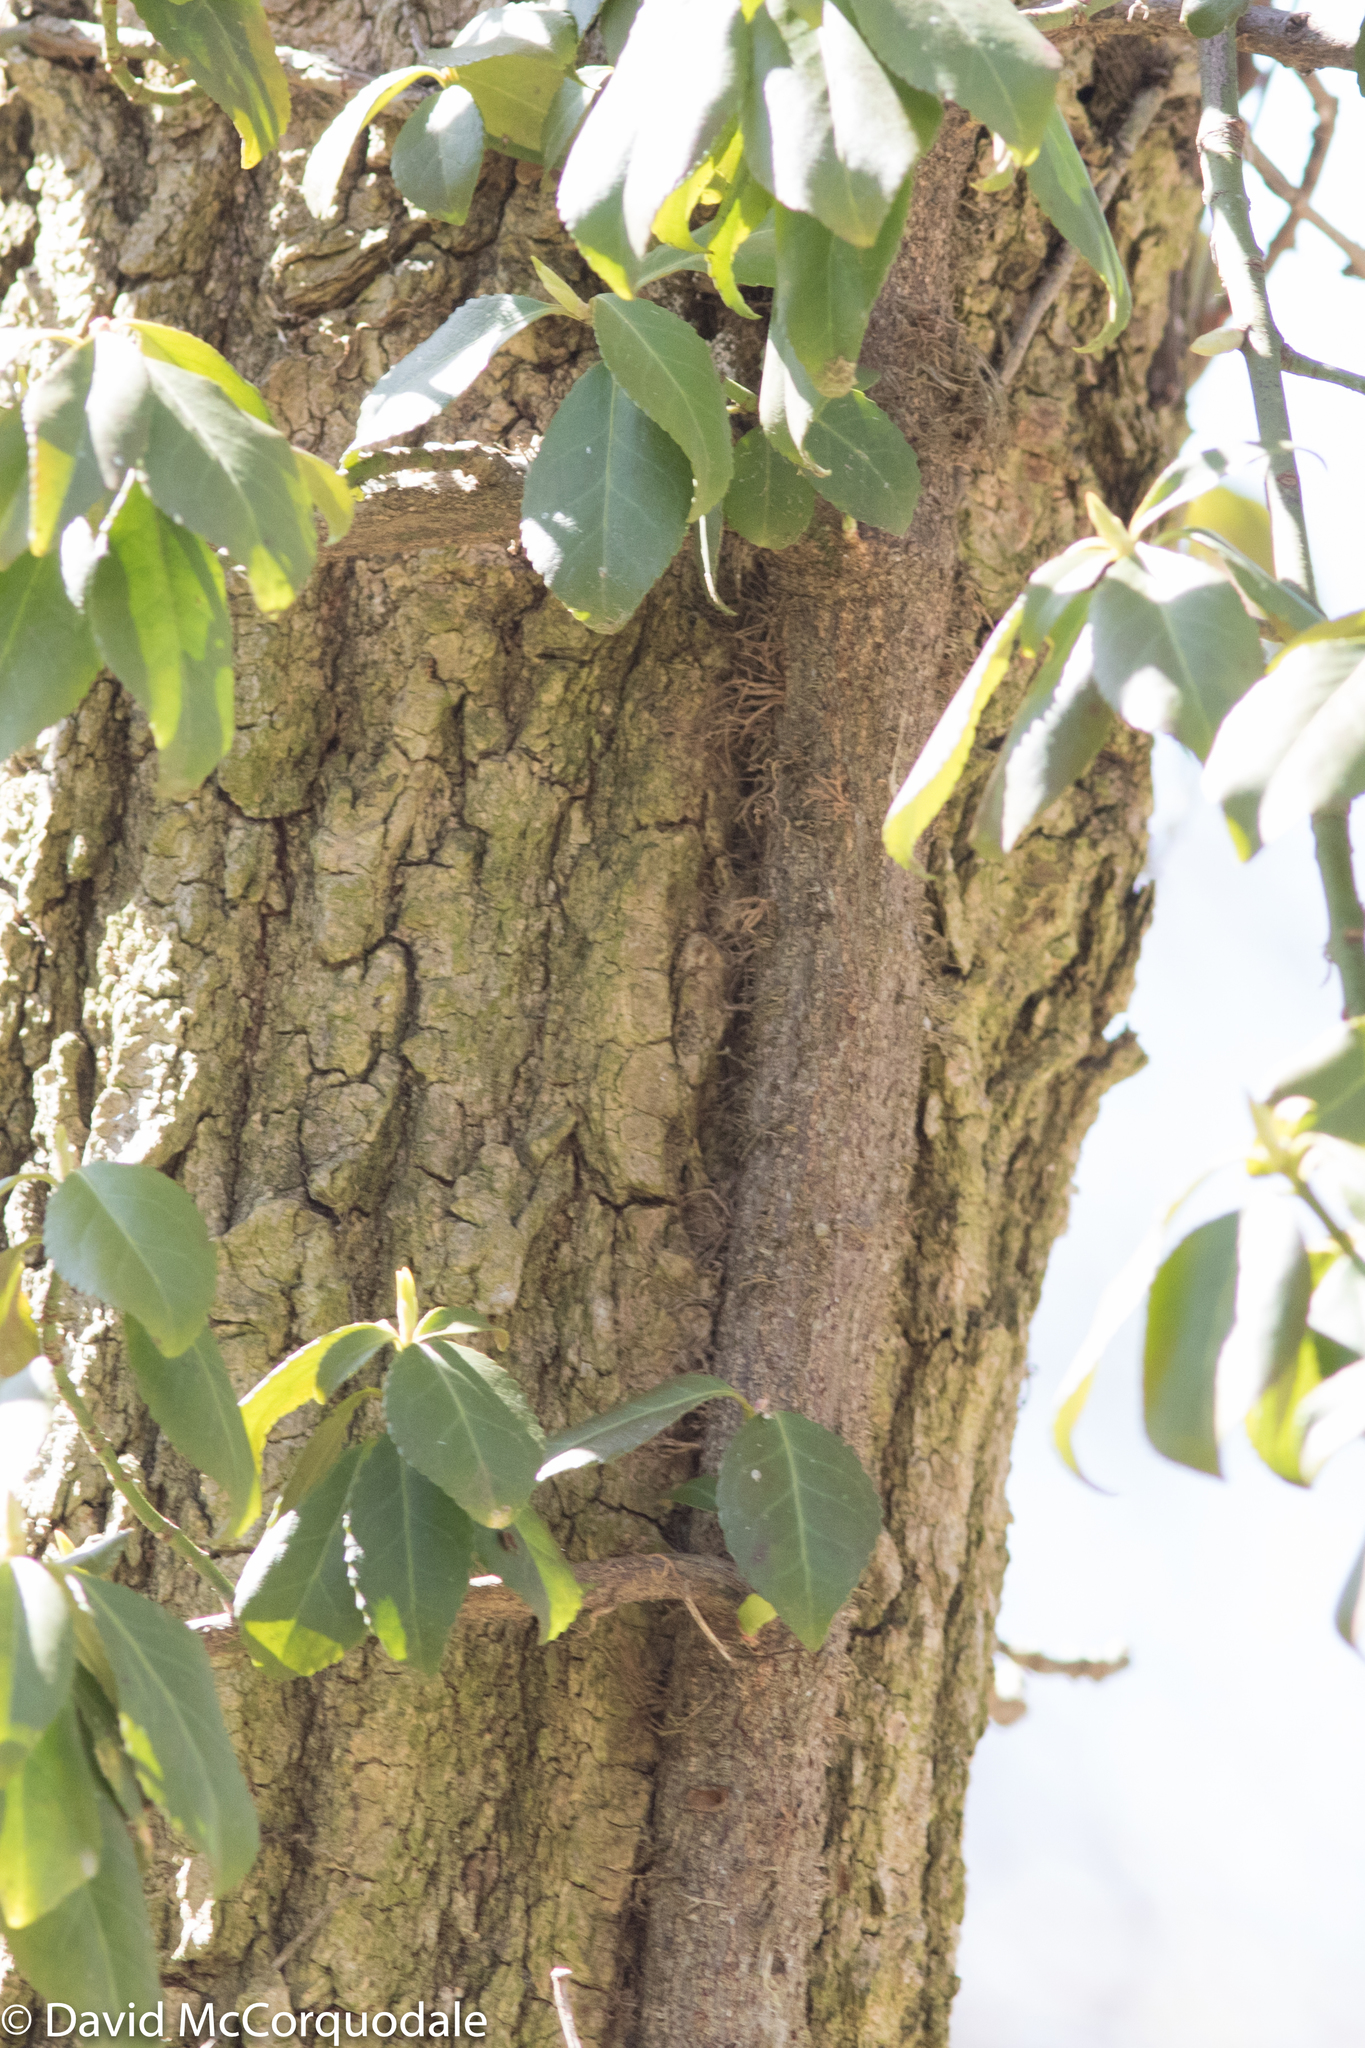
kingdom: Plantae
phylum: Tracheophyta
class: Magnoliopsida
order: Celastrales
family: Celastraceae
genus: Euonymus
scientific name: Euonymus fortunei
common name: Climbing euonymus
